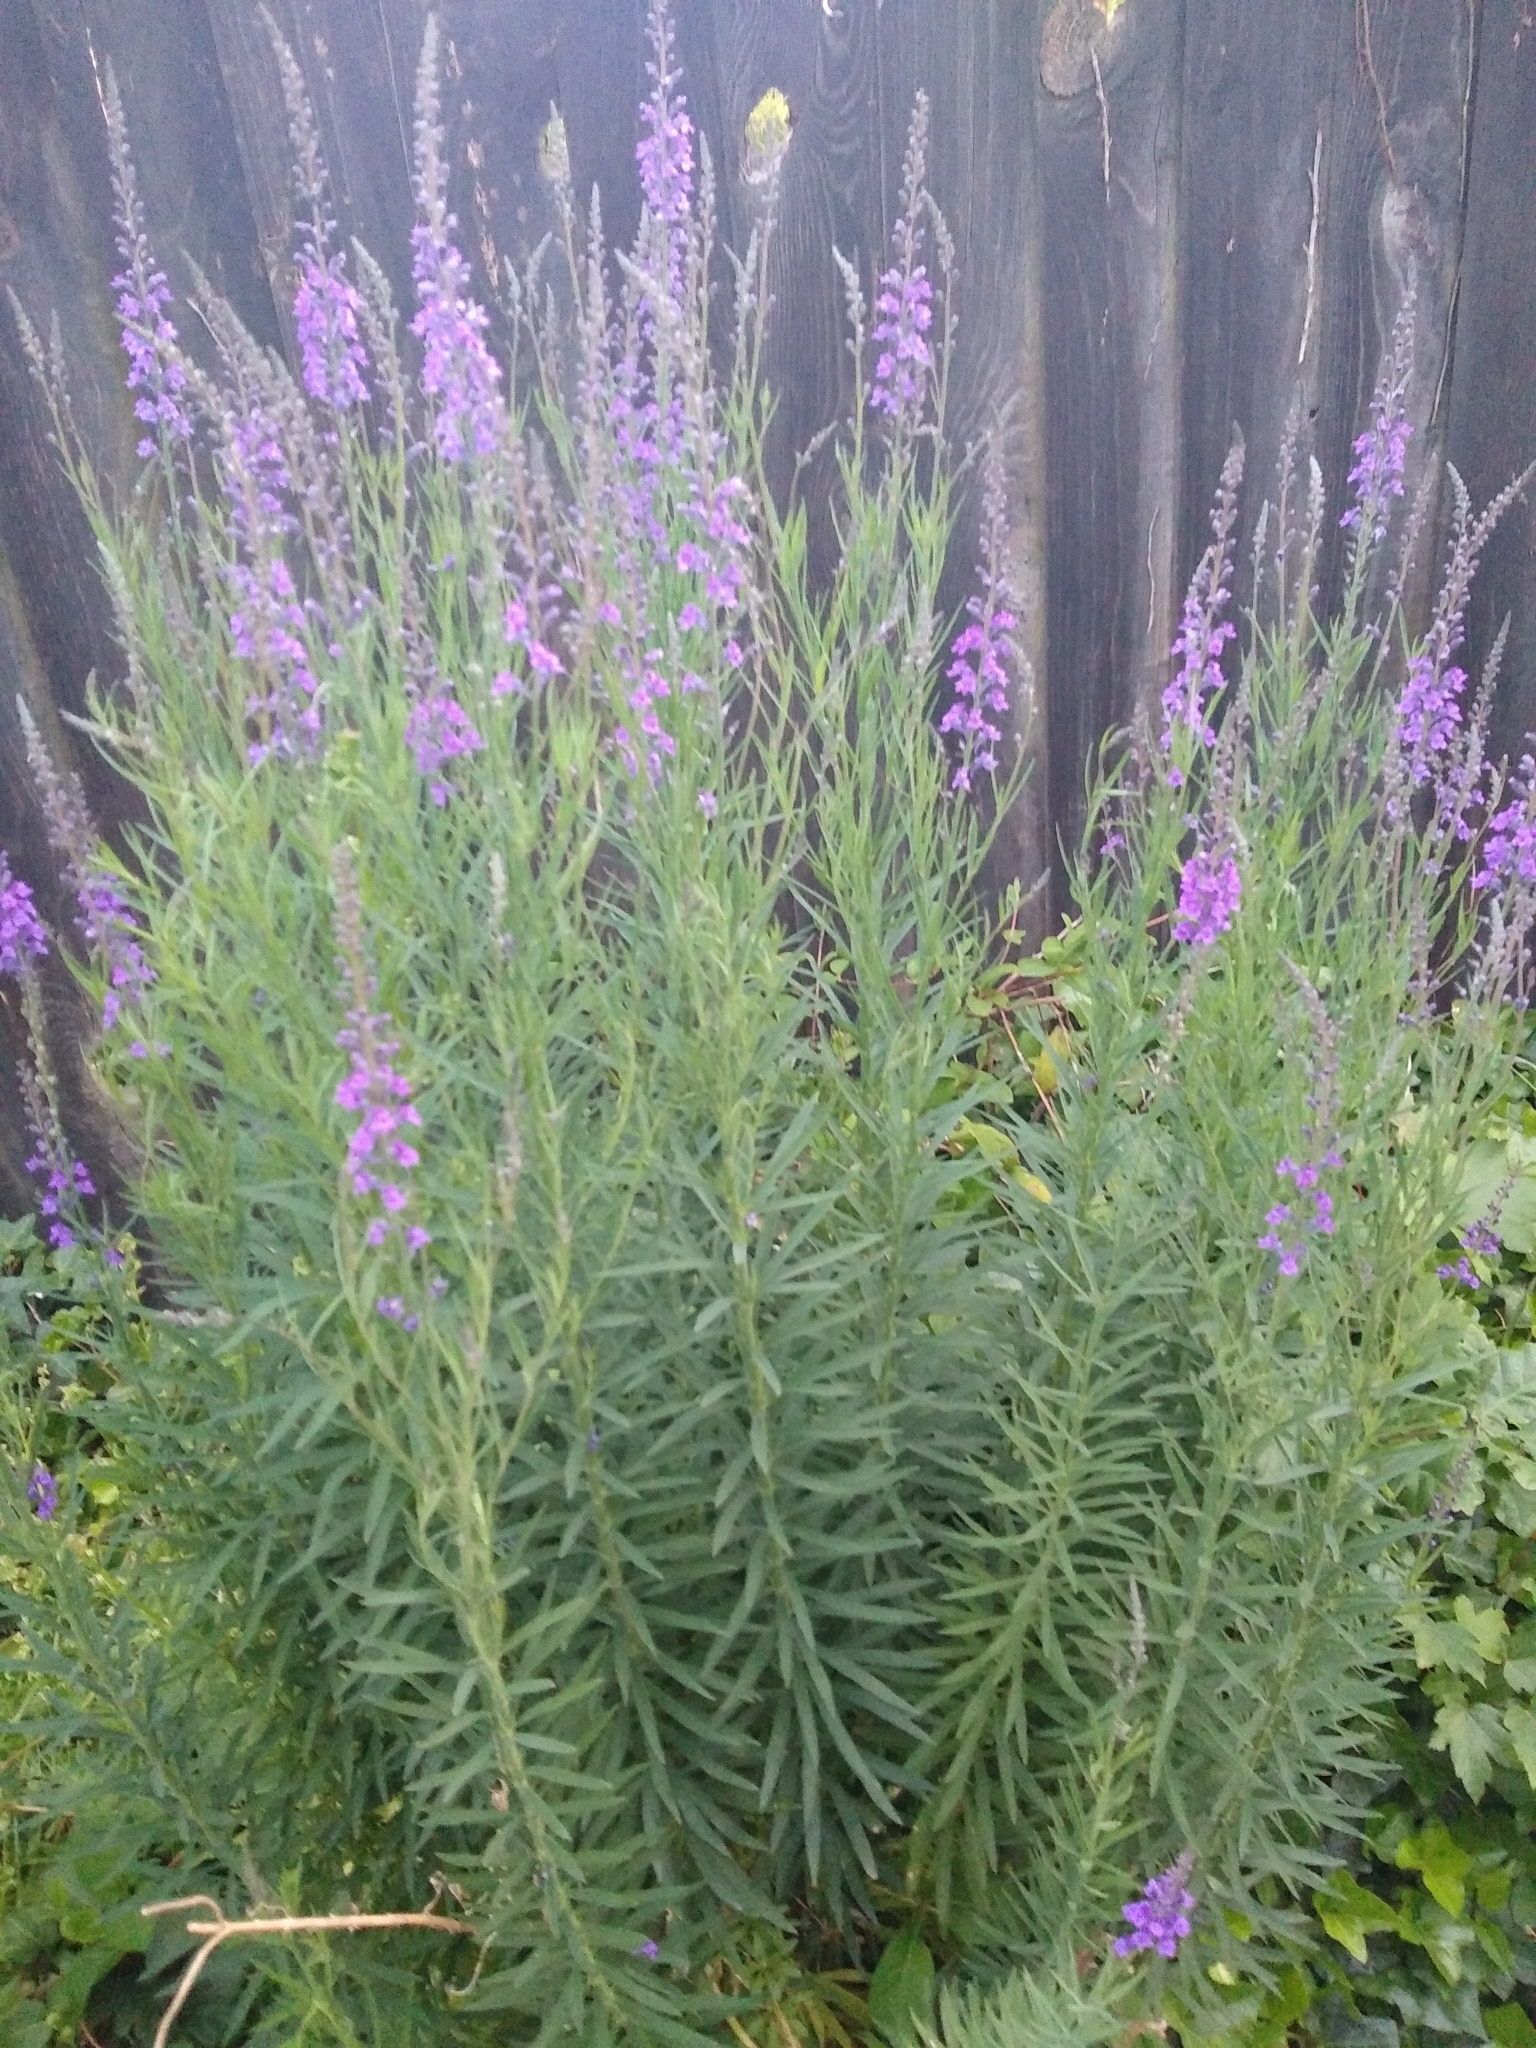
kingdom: Plantae
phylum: Tracheophyta
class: Magnoliopsida
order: Lamiales
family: Plantaginaceae
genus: Linaria
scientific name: Linaria purpurea
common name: Purple toadflax
